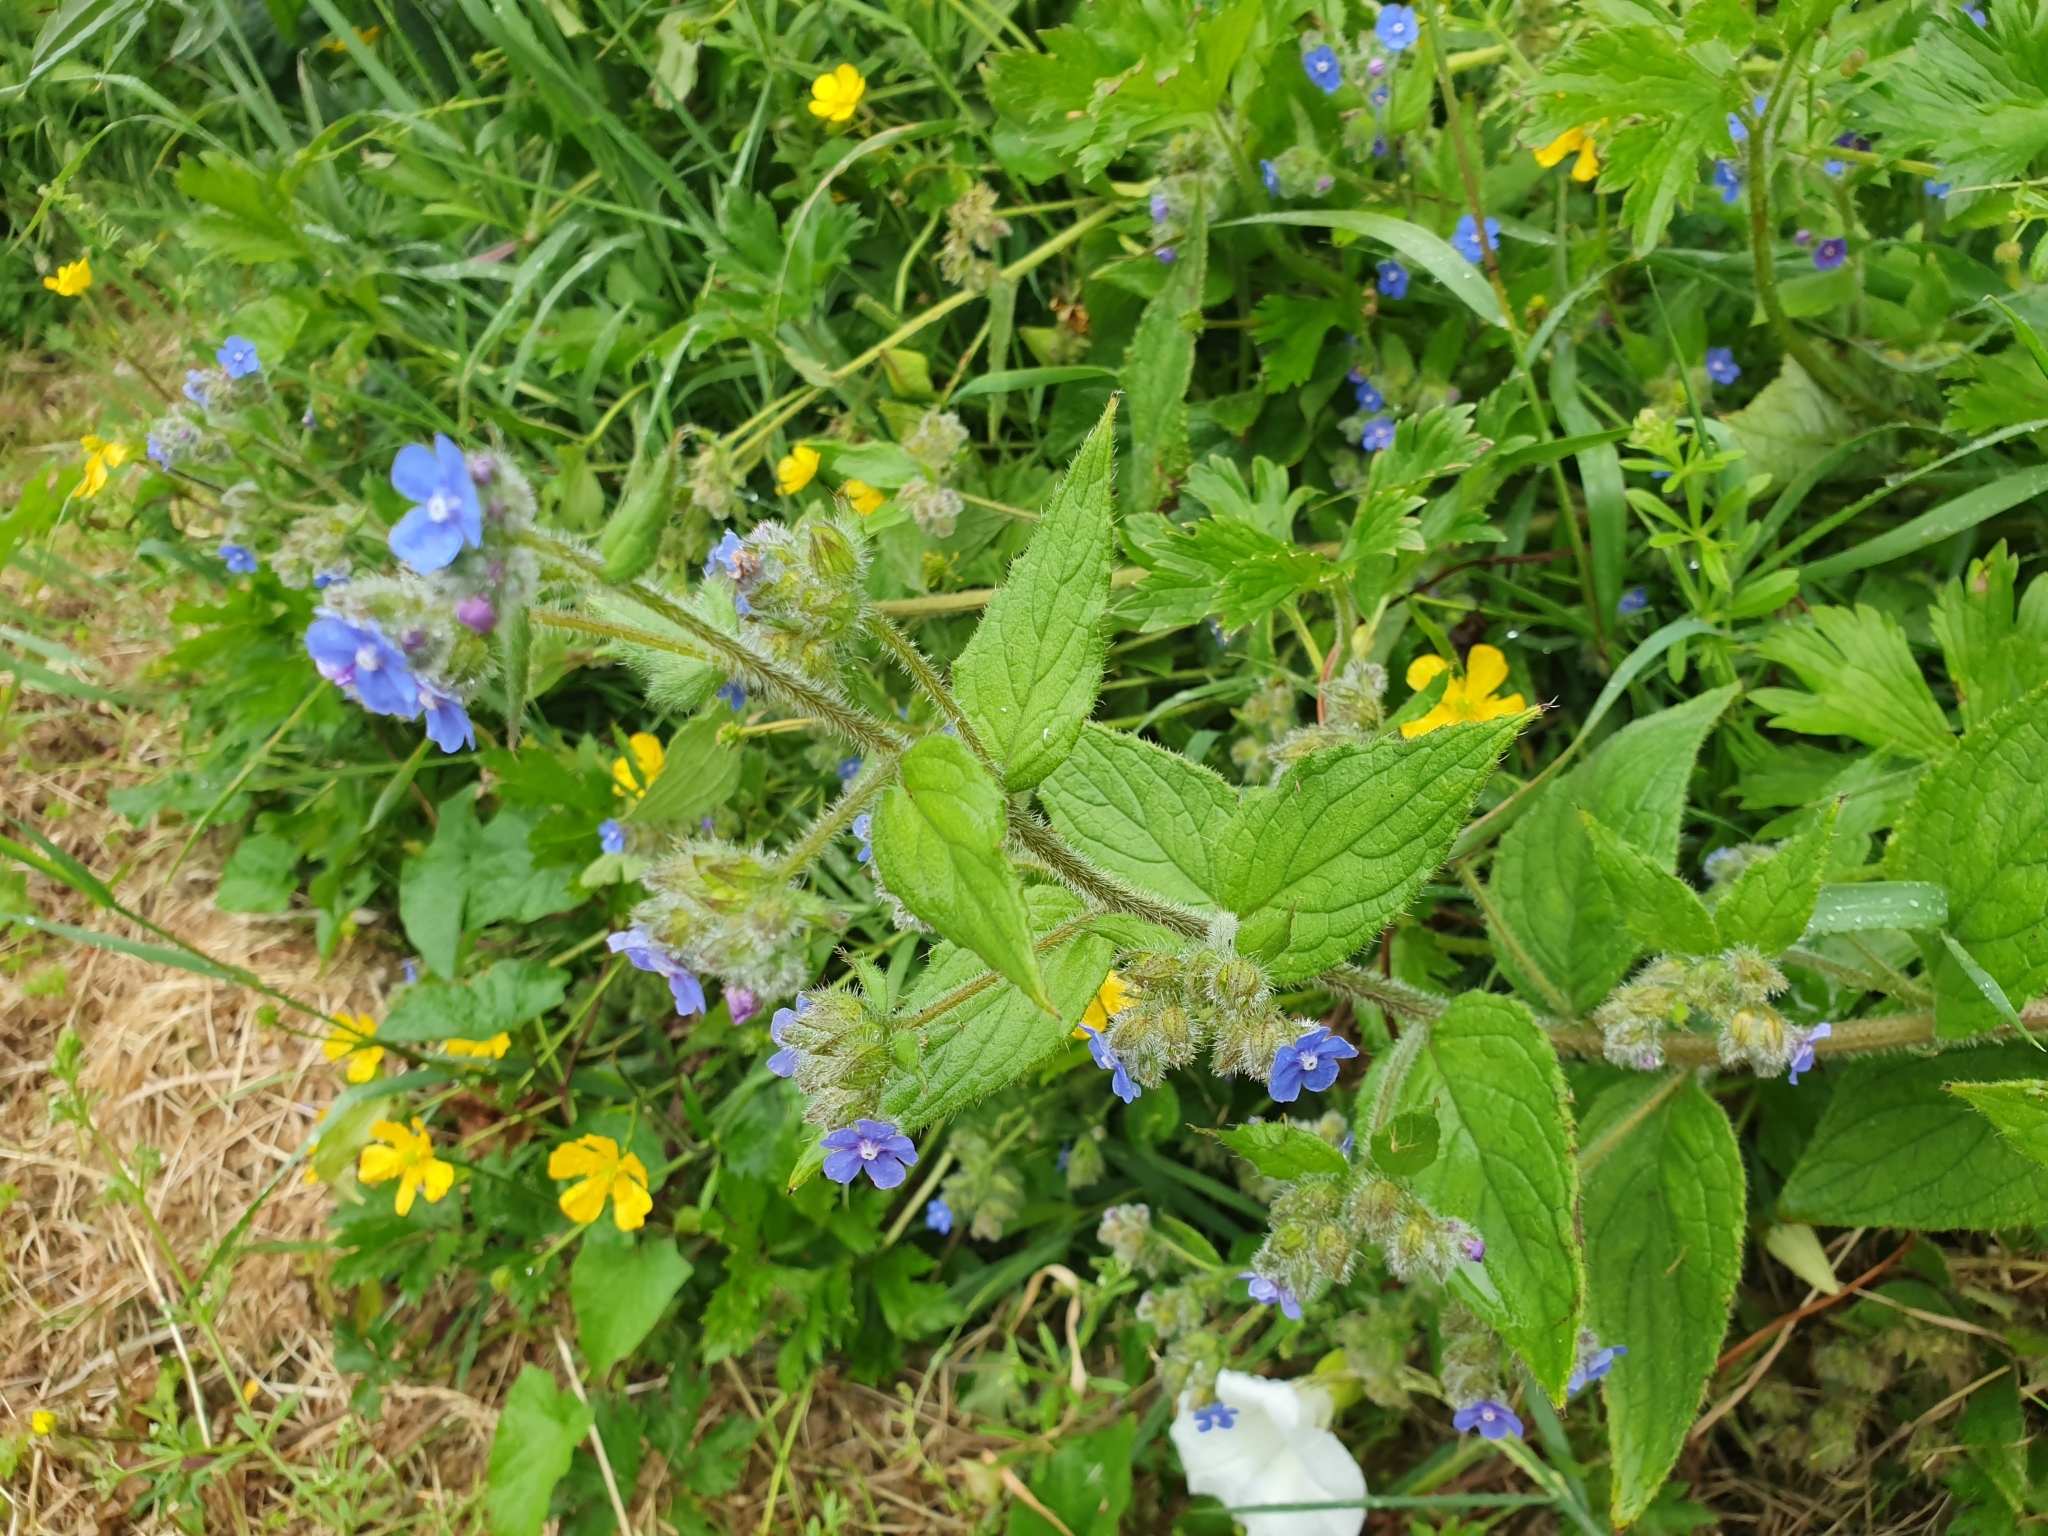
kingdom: Plantae
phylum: Tracheophyta
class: Magnoliopsida
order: Boraginales
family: Boraginaceae
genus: Pentaglottis
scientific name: Pentaglottis sempervirens
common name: Green alkanet
